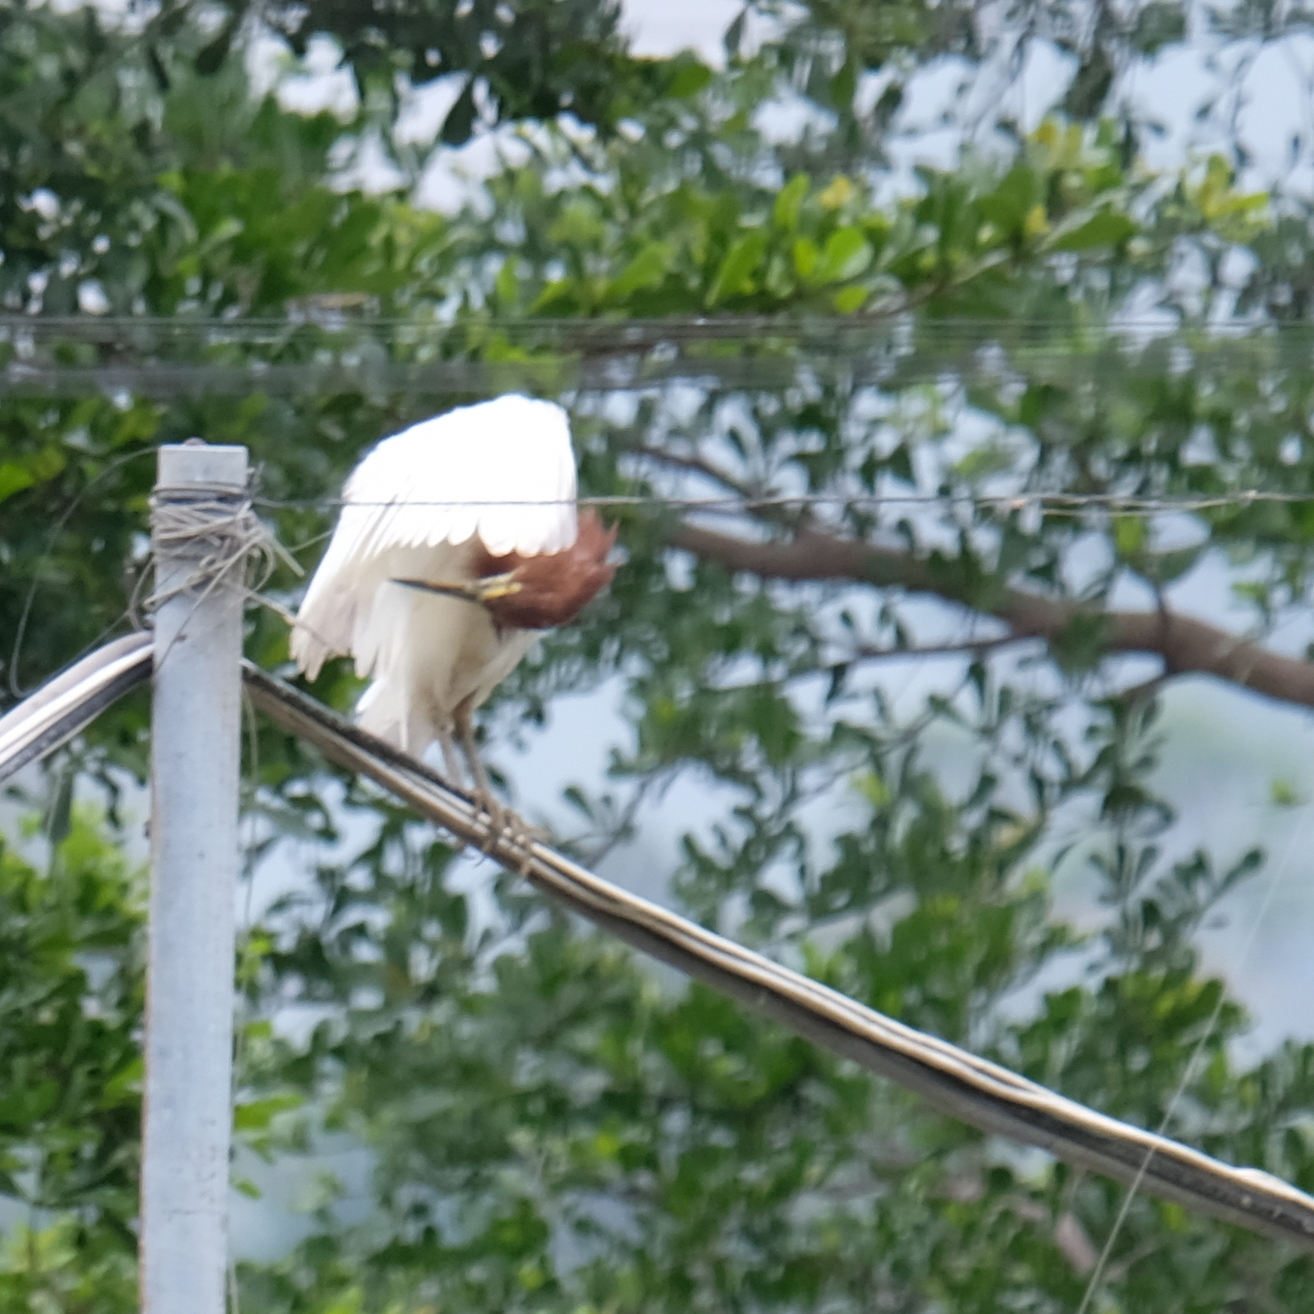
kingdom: Animalia
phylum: Chordata
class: Aves
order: Pelecaniformes
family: Ardeidae
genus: Ardeola
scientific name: Ardeola bacchus
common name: Chinese pond heron
